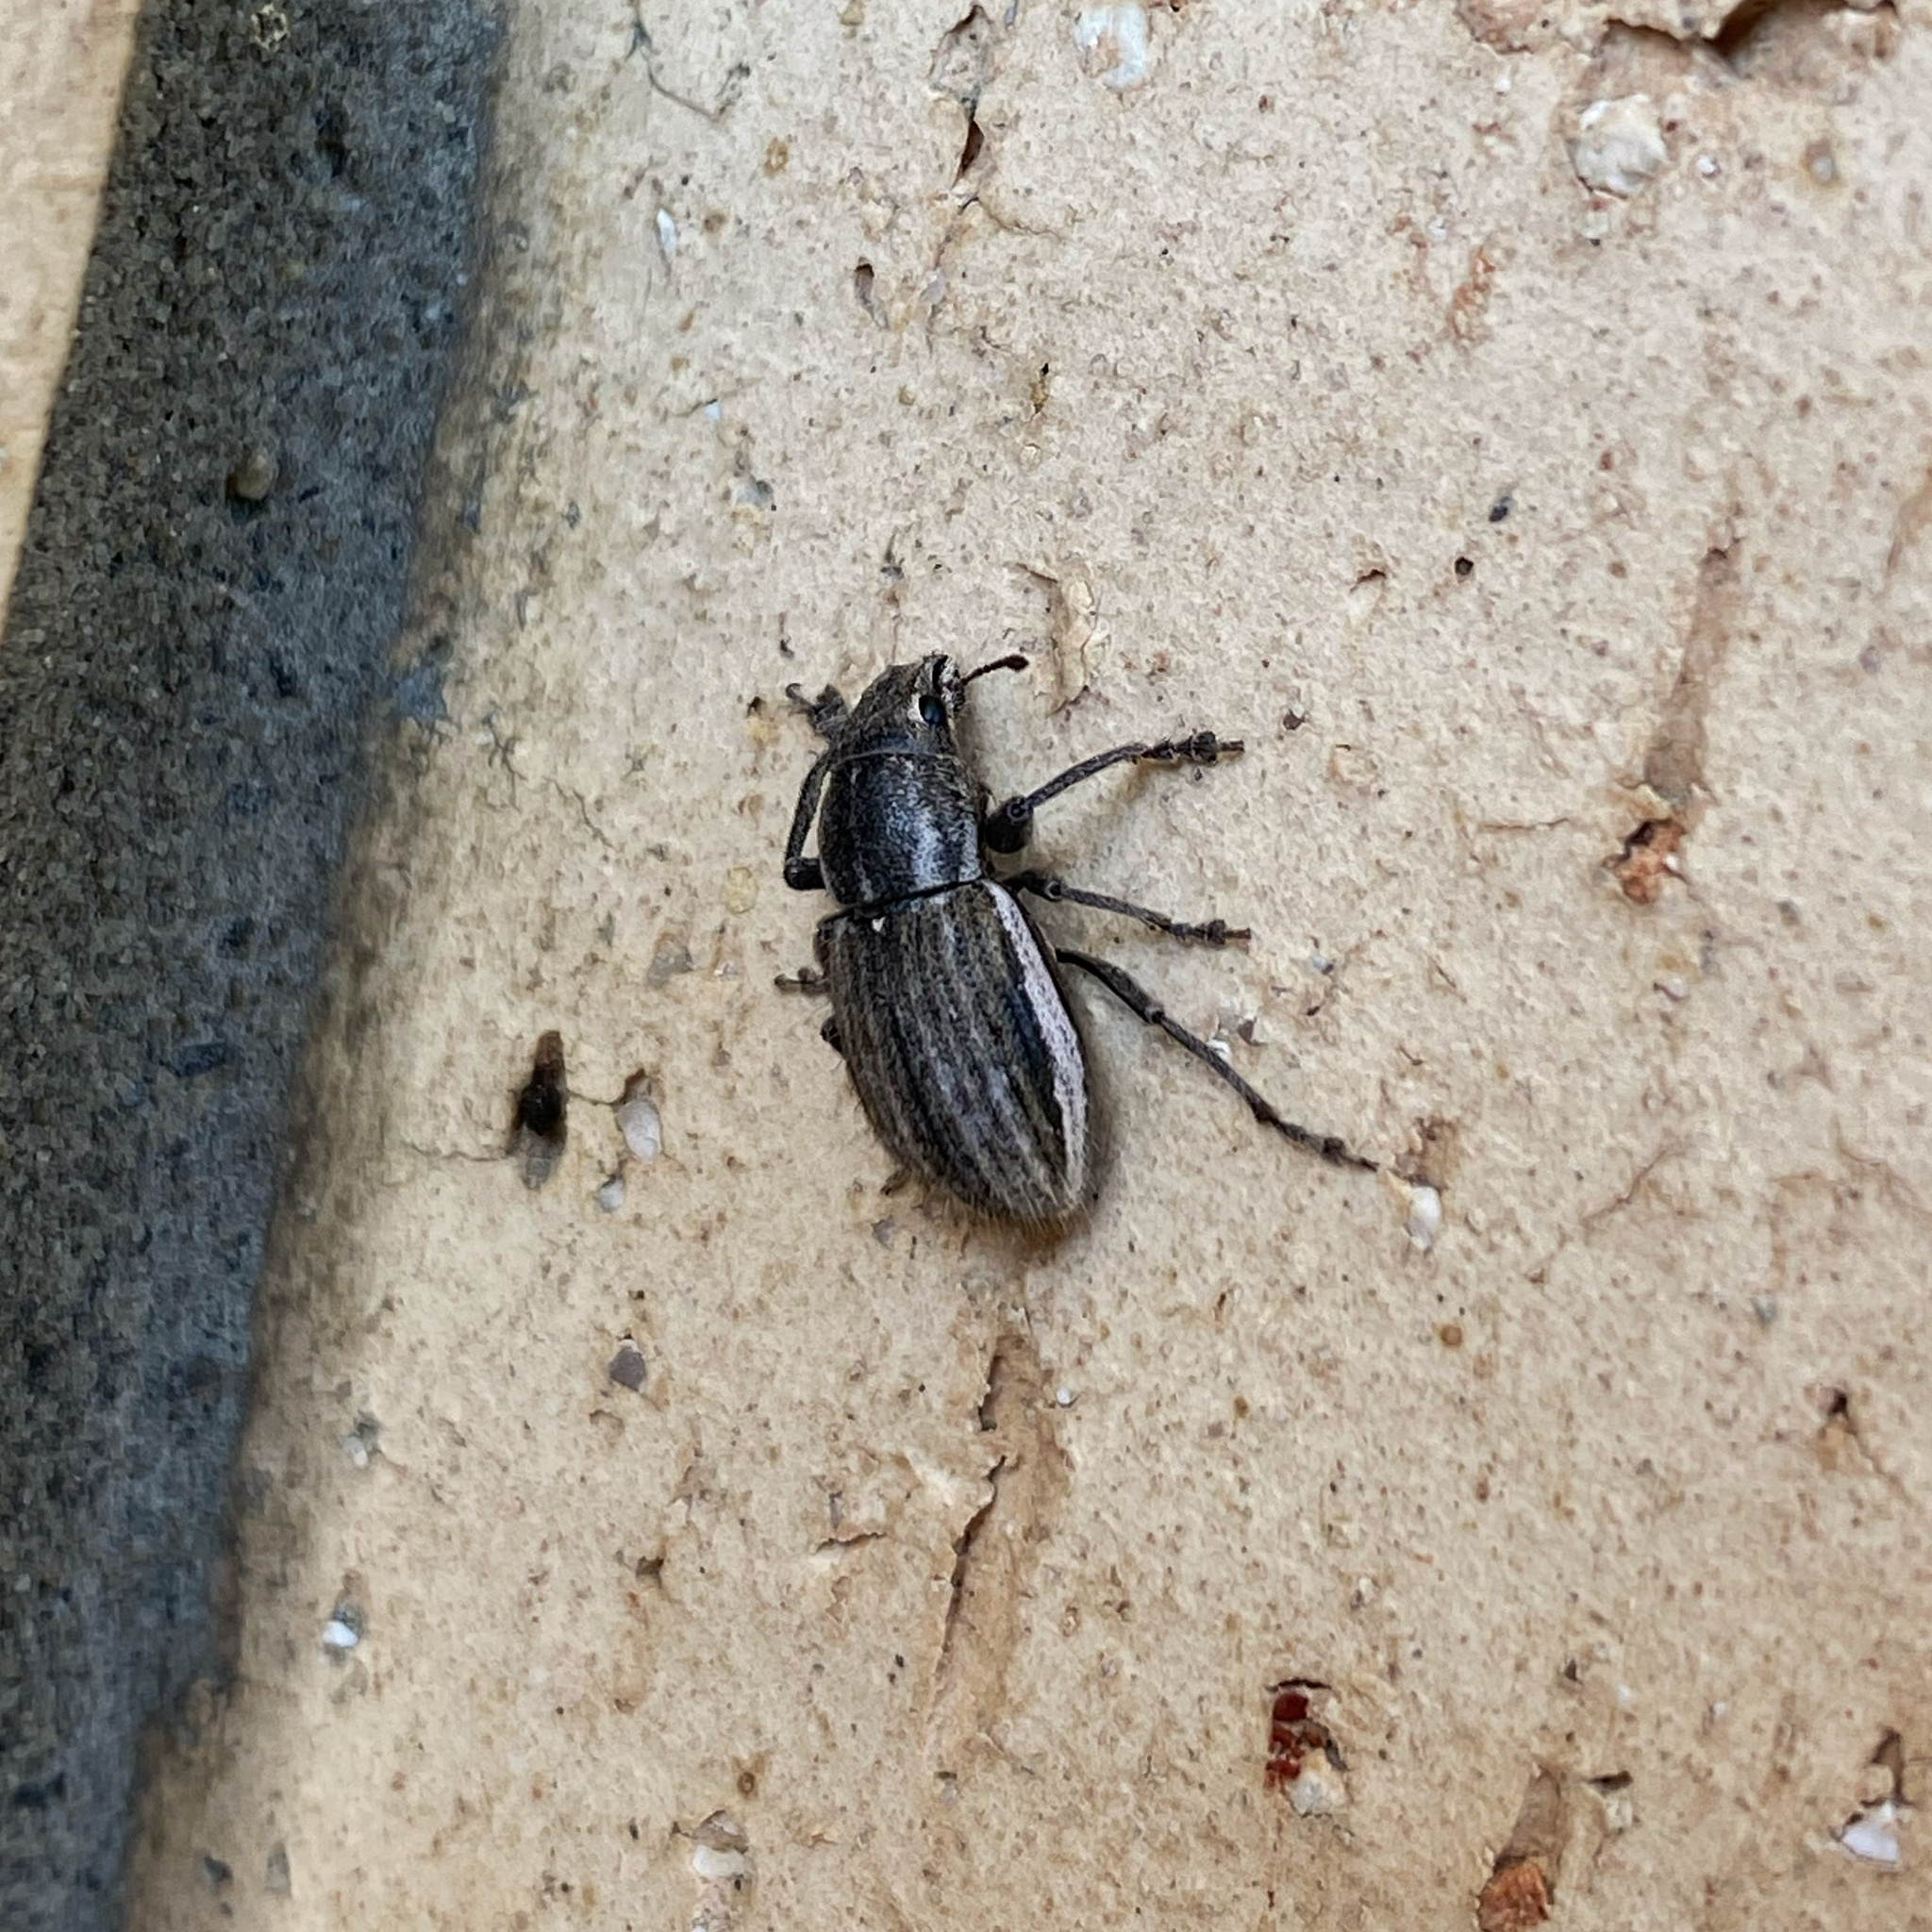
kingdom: Animalia
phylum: Arthropoda
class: Insecta
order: Coleoptera
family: Curculionidae
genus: Naupactus
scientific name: Naupactus leucoloma
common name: Whitefringed beetle
